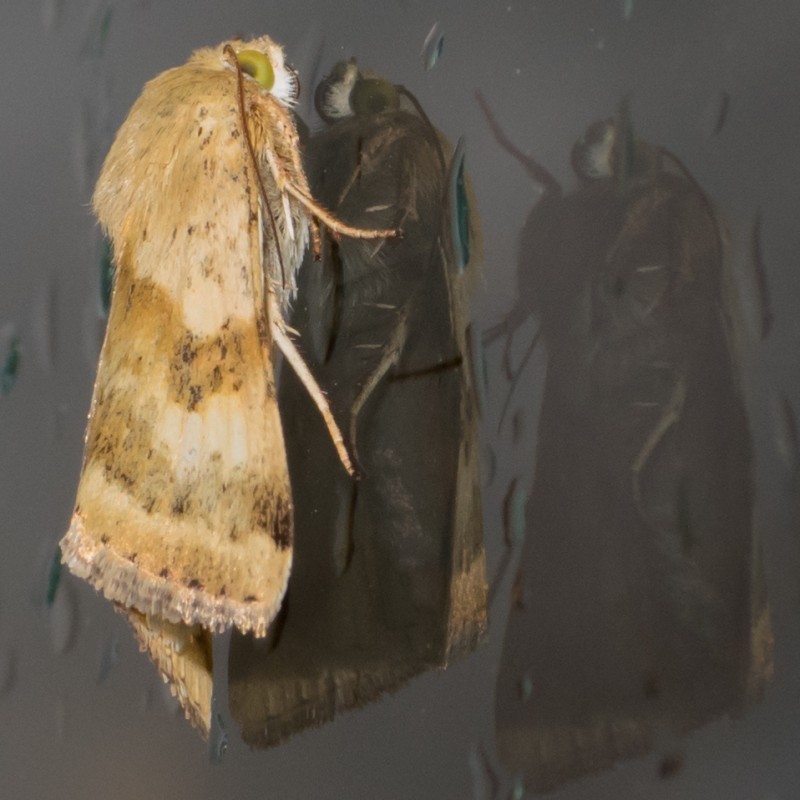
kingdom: Animalia
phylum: Arthropoda
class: Insecta
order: Lepidoptera
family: Noctuidae
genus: Heliothis
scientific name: Heliothis adaucta
